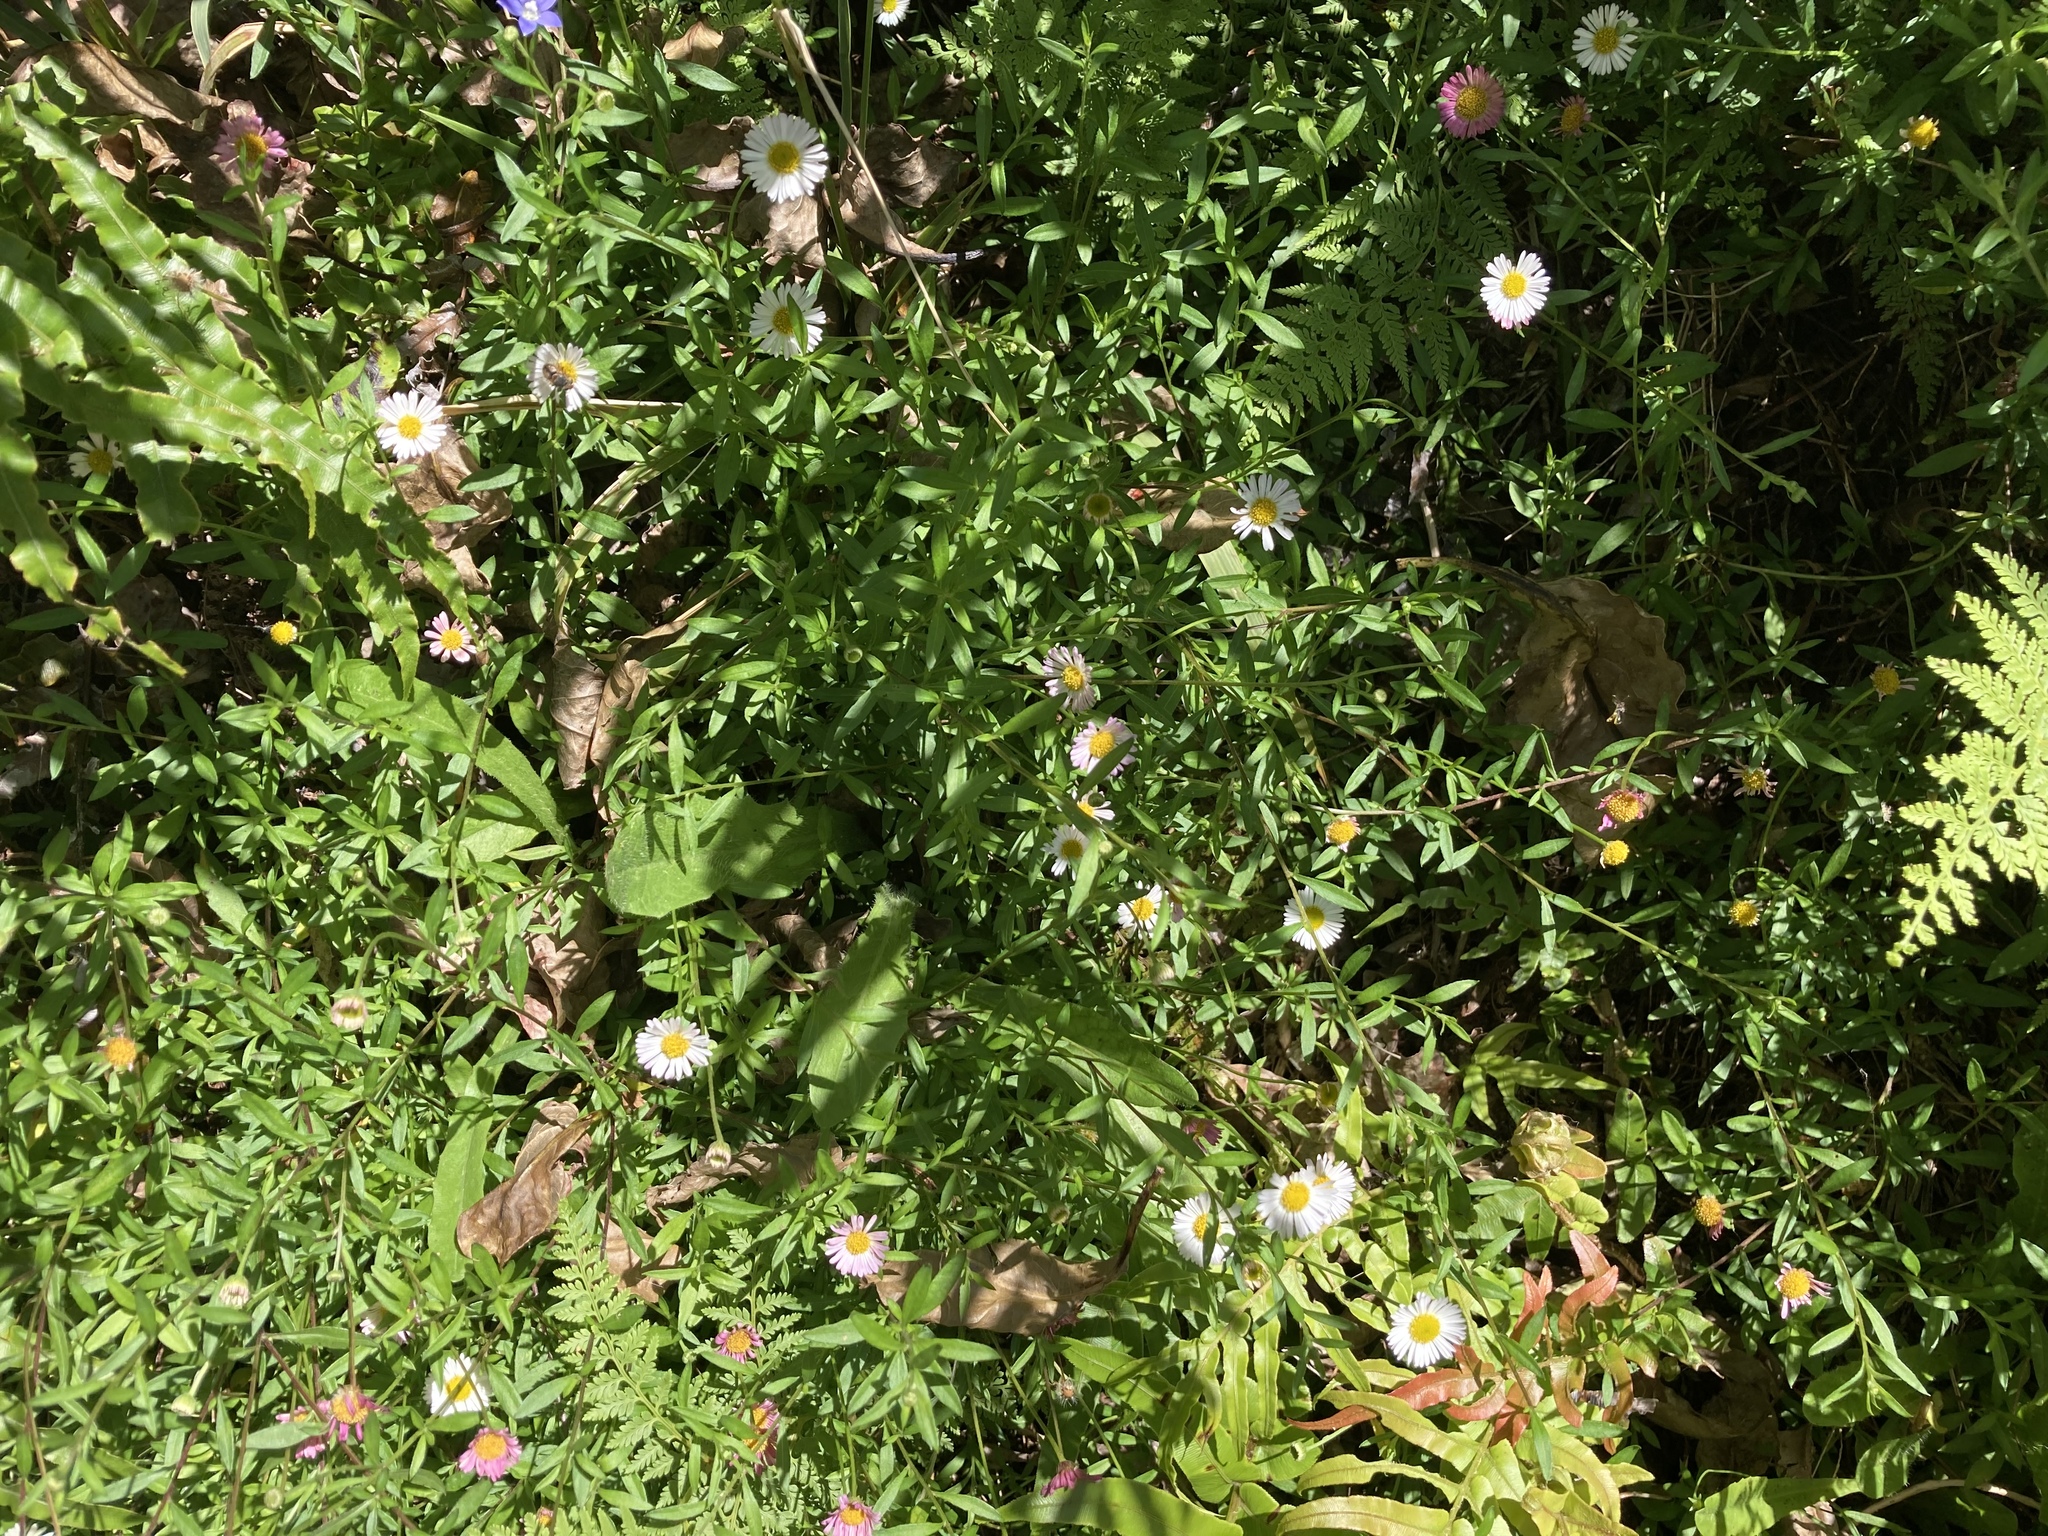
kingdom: Plantae
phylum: Tracheophyta
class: Magnoliopsida
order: Asterales
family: Asteraceae
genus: Erigeron
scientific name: Erigeron karvinskianus
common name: Mexican fleabane
